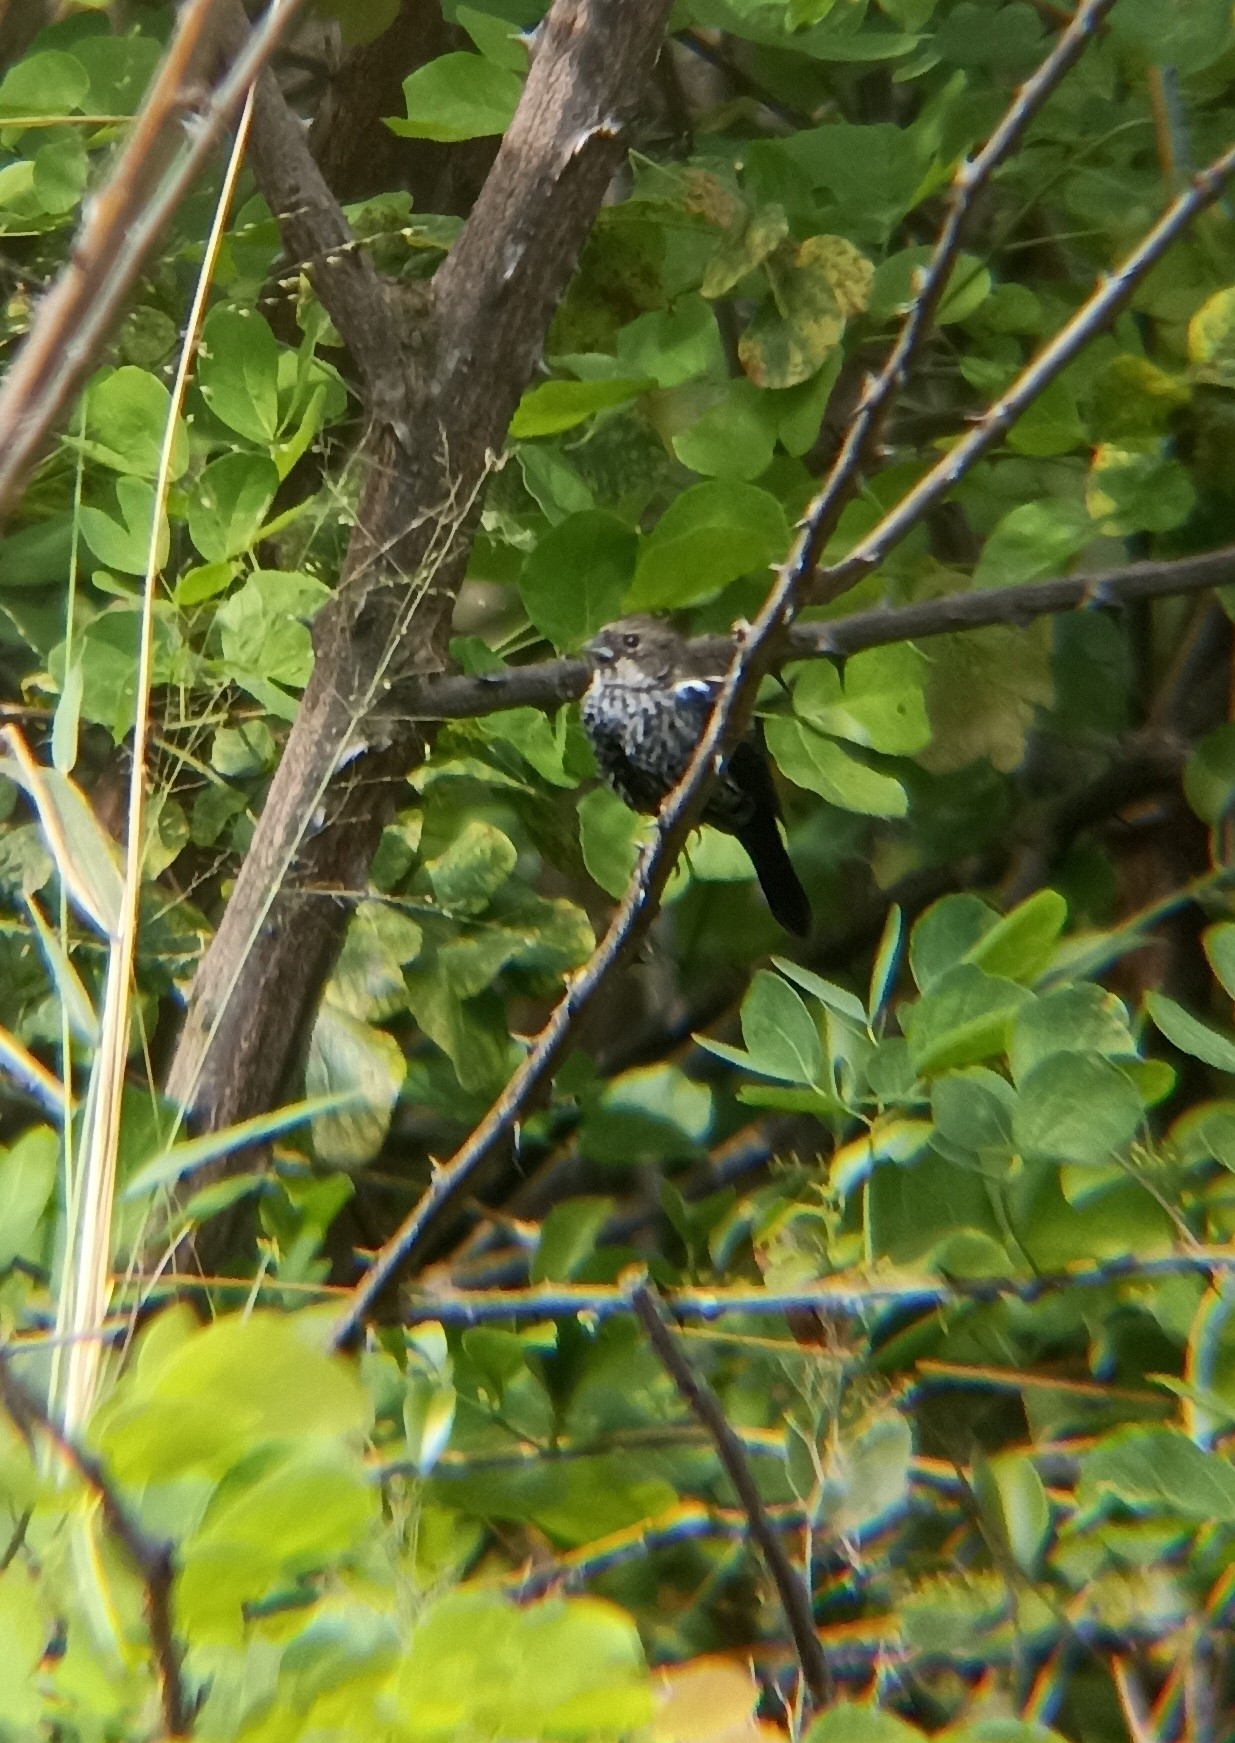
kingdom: Animalia
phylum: Chordata
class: Aves
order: Passeriformes
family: Thraupidae
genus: Volatinia
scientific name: Volatinia jacarina
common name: Blue-black grassquit
